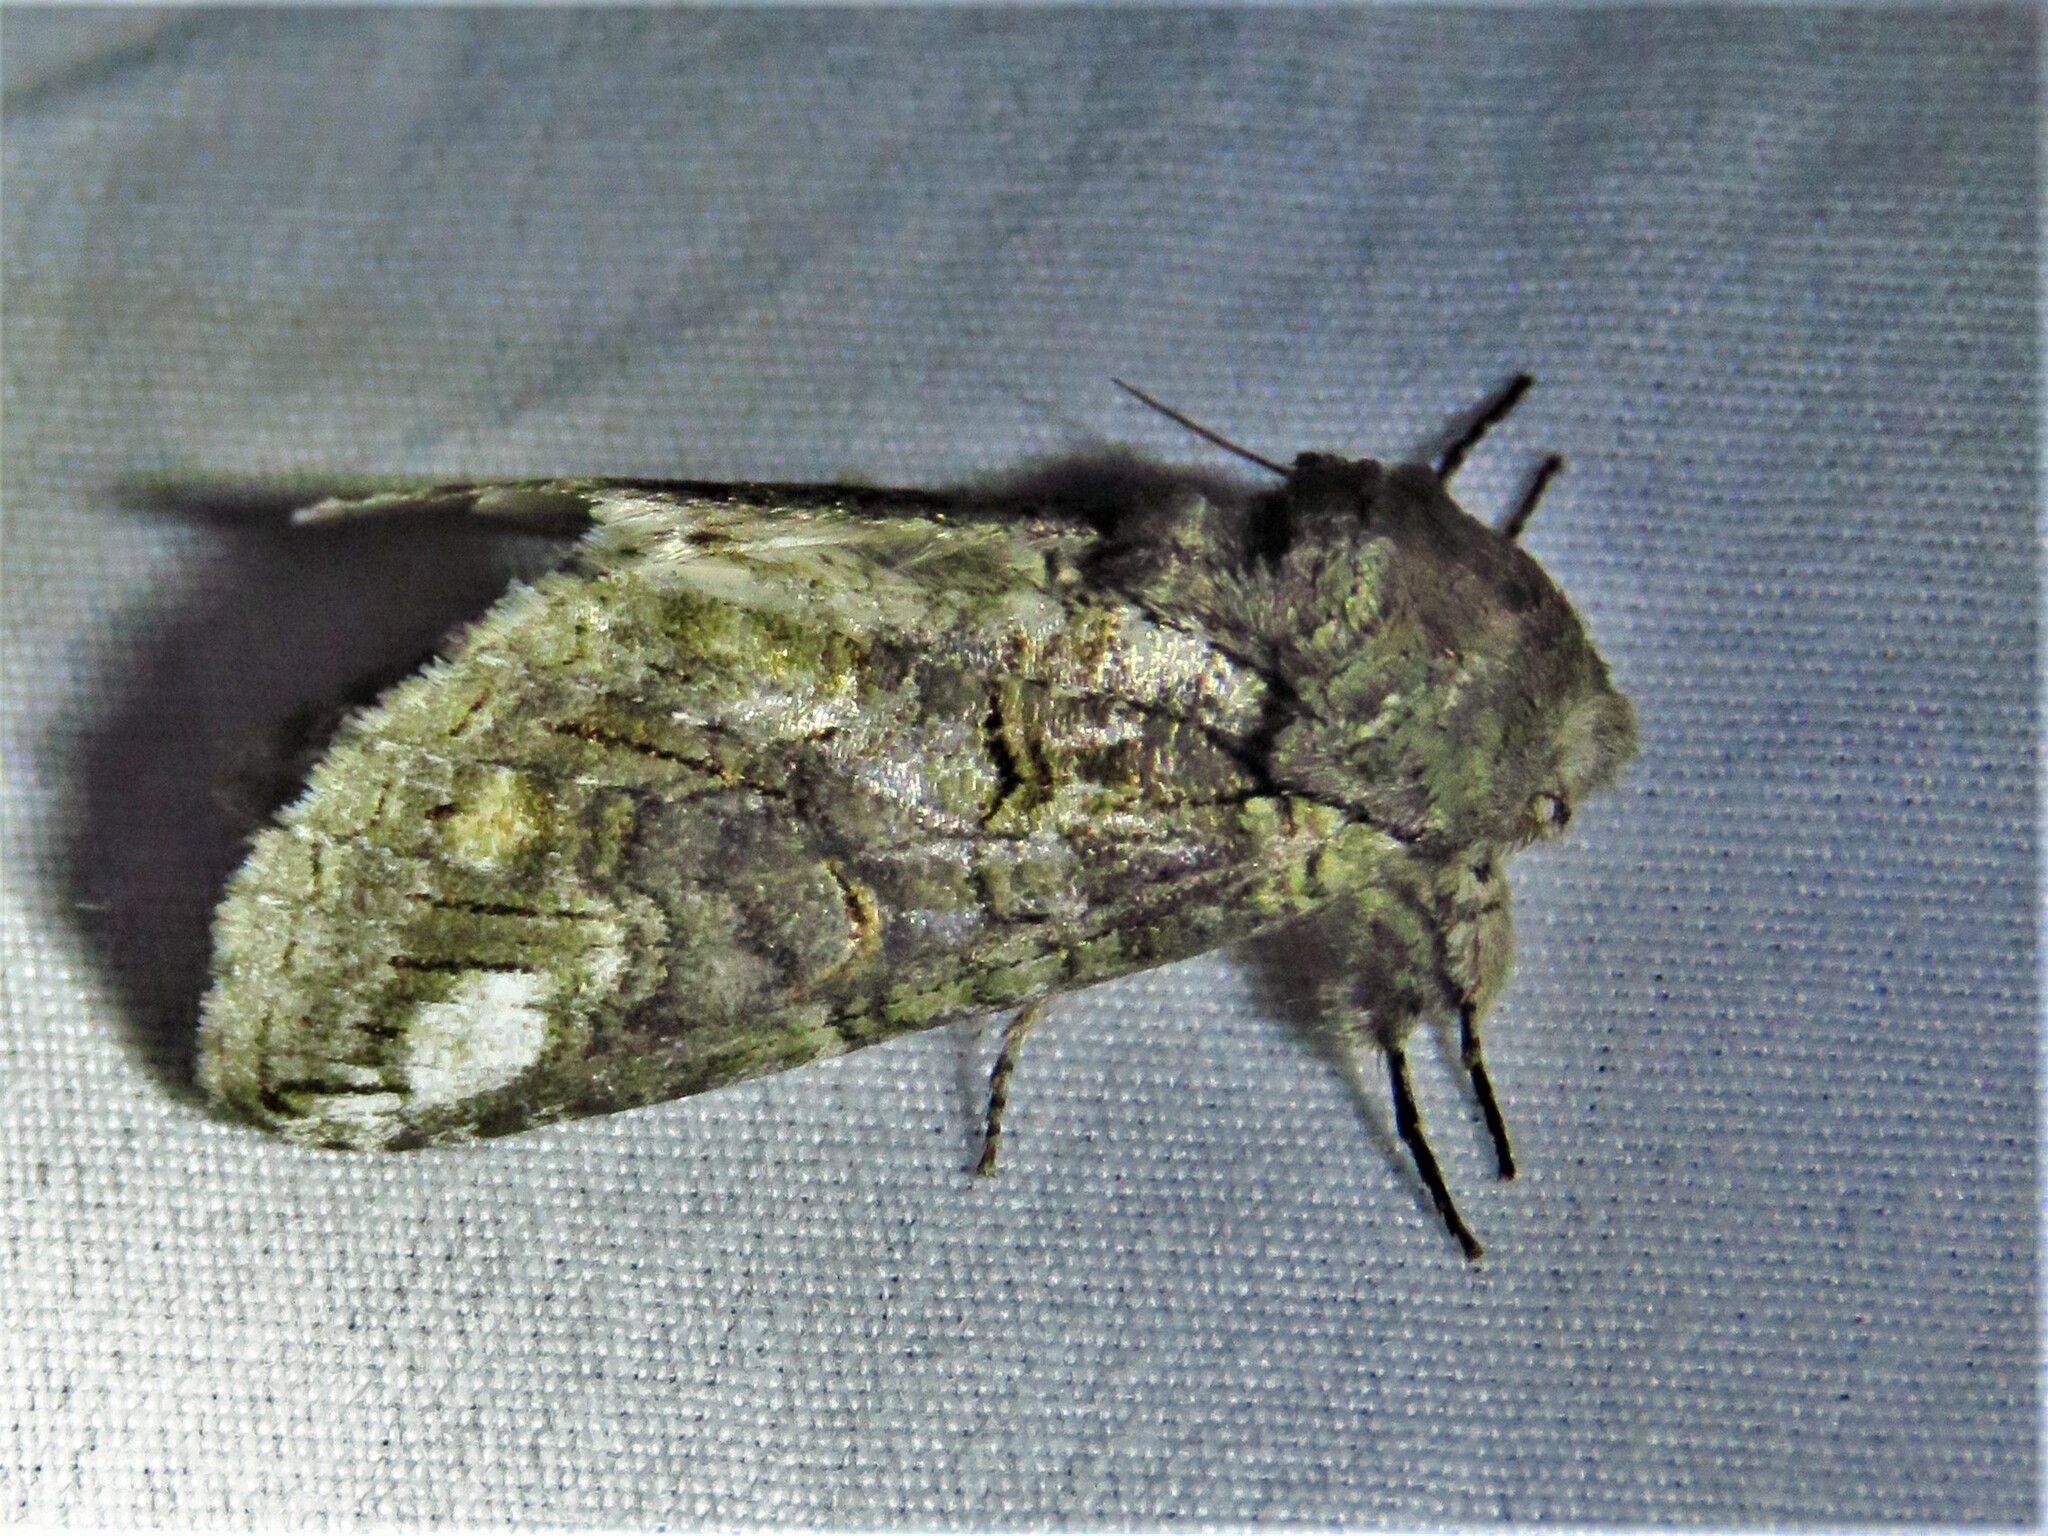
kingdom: Animalia
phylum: Arthropoda
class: Insecta
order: Lepidoptera
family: Notodontidae
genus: Heterocampa
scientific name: Heterocampa obliqua
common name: Oblique heterocampa
